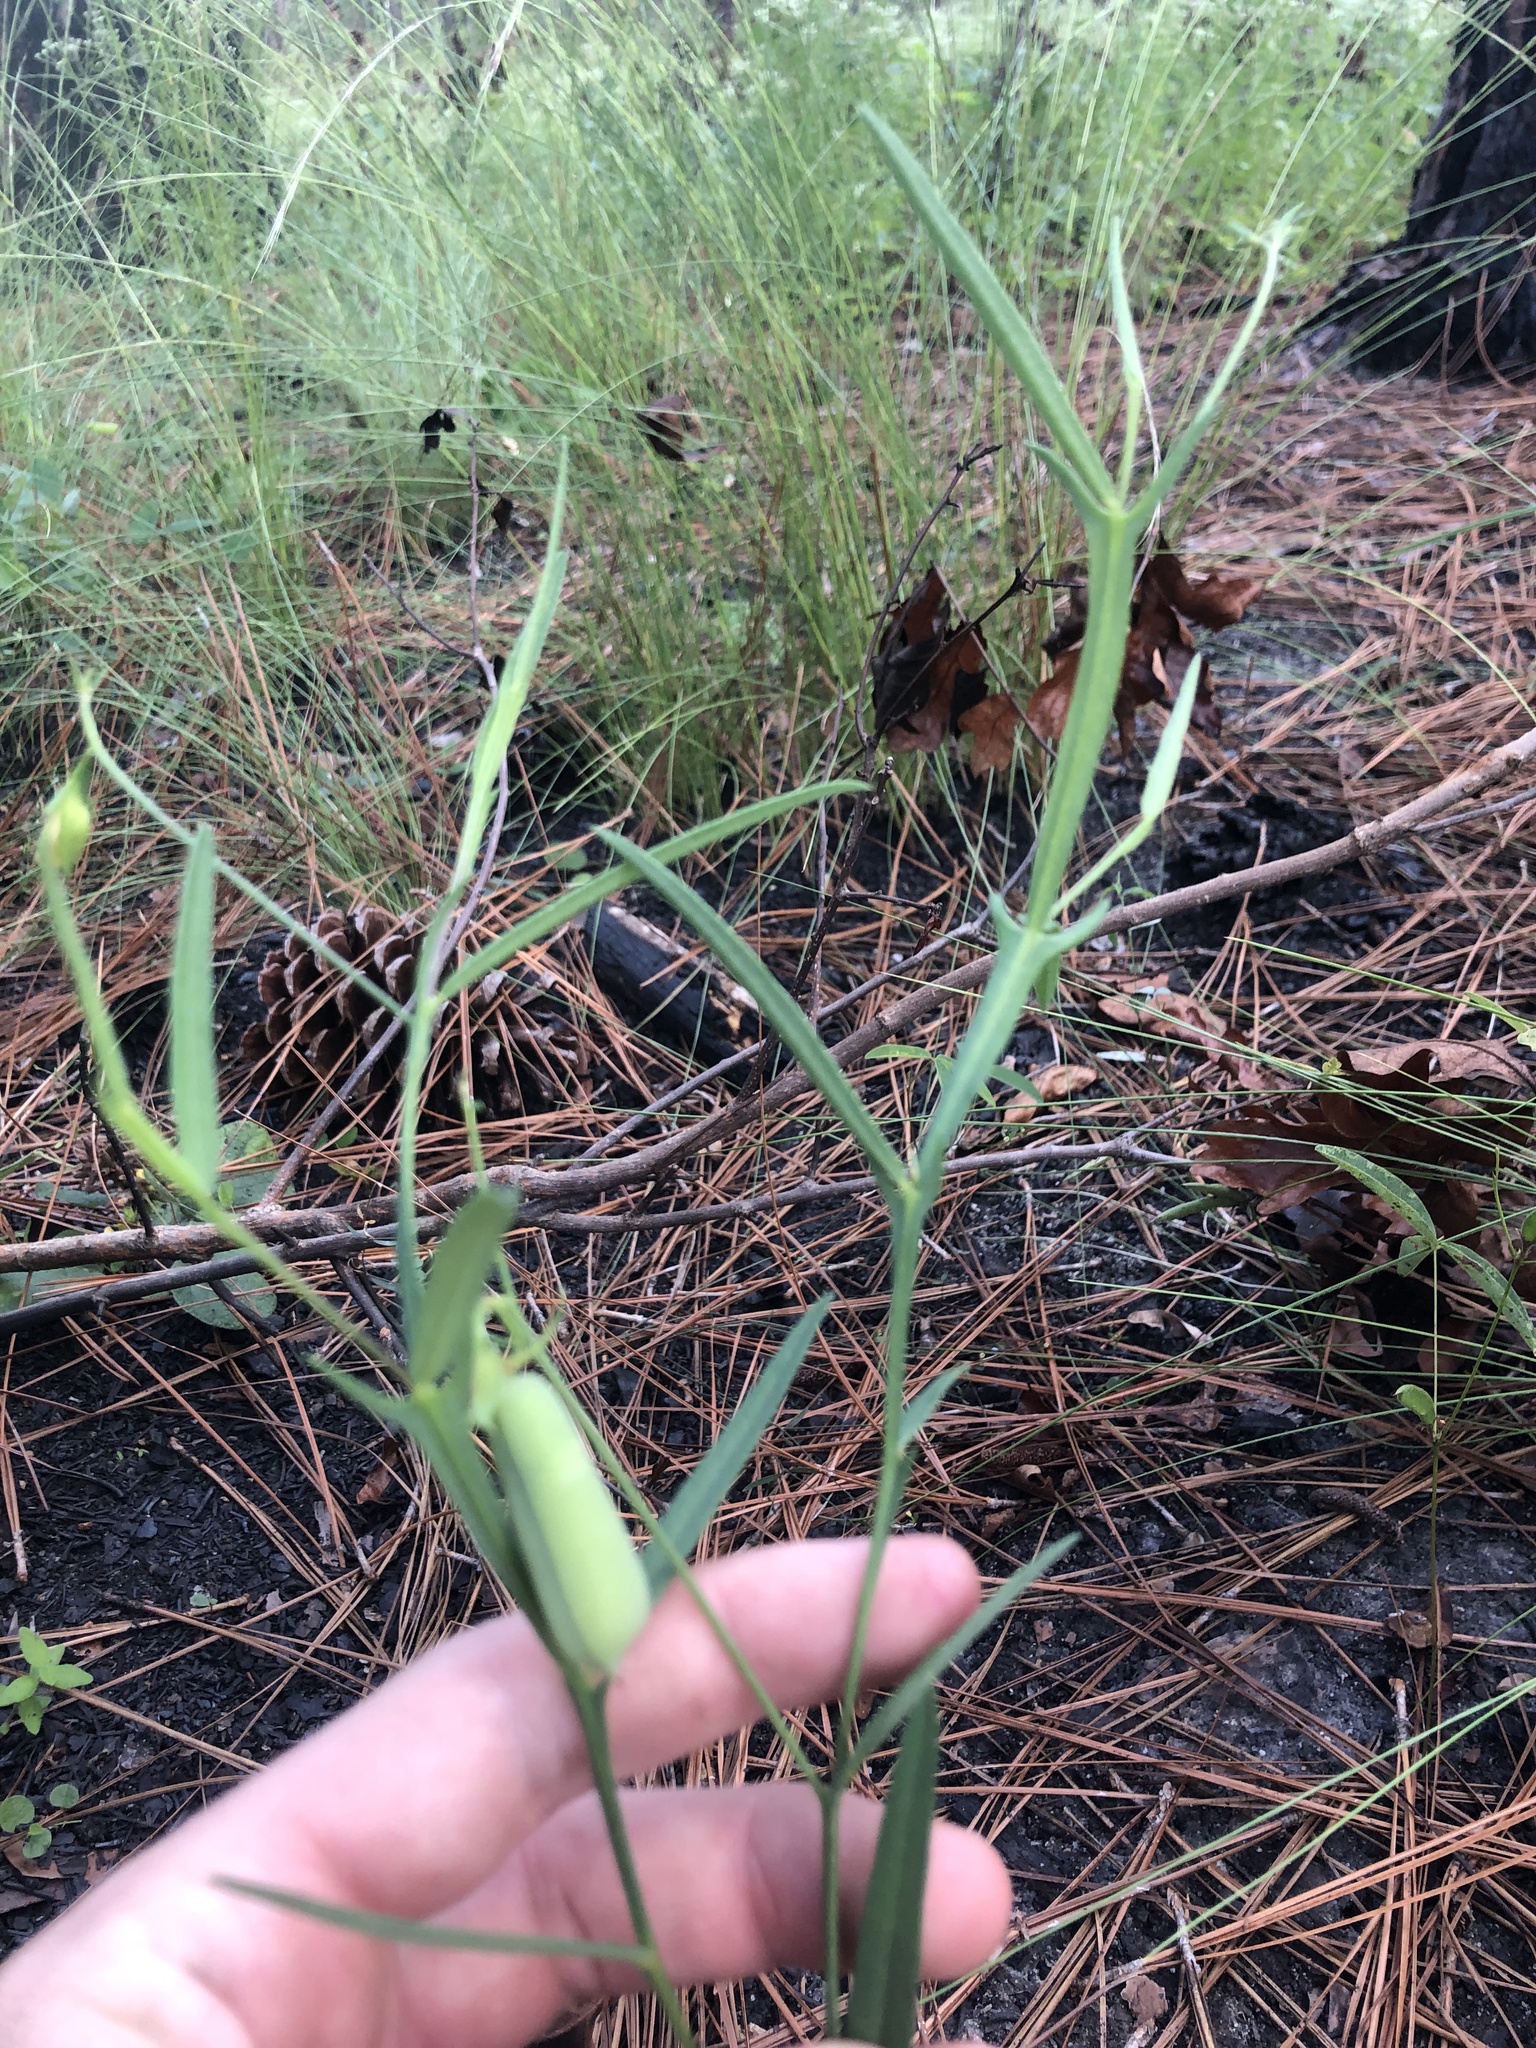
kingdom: Plantae
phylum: Tracheophyta
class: Magnoliopsida
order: Fabales
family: Fabaceae
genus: Crotalaria
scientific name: Crotalaria purshii
